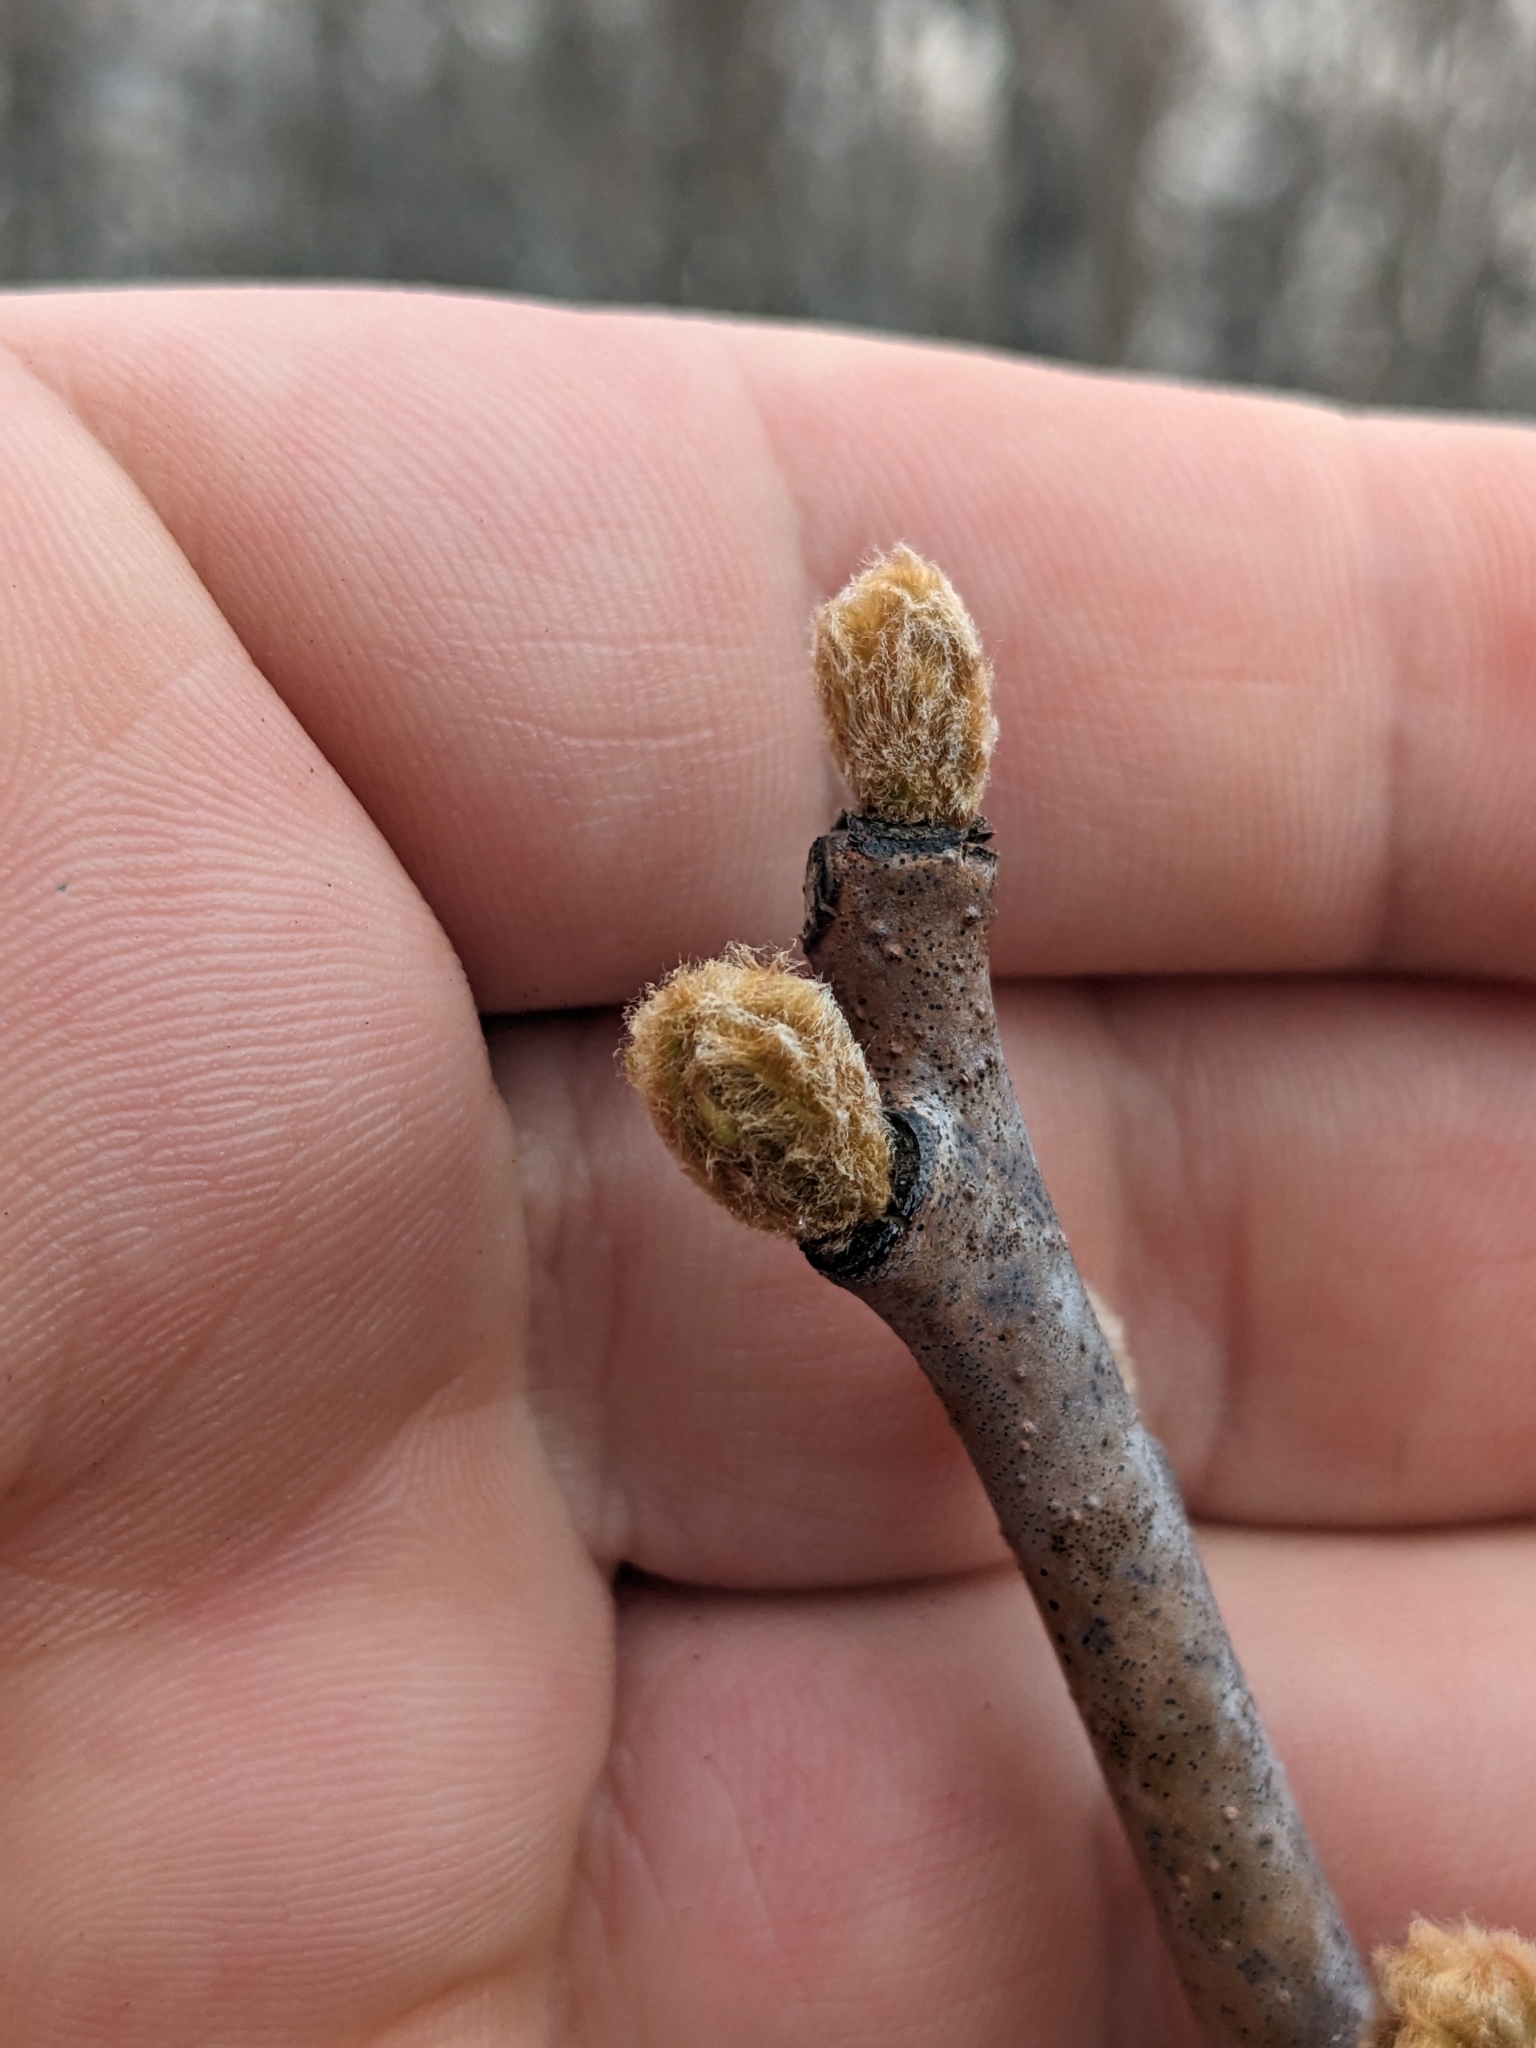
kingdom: Plantae
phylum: Tracheophyta
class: Magnoliopsida
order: Sapindales
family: Anacardiaceae
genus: Rhus
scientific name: Rhus glabra
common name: Scarlet sumac
